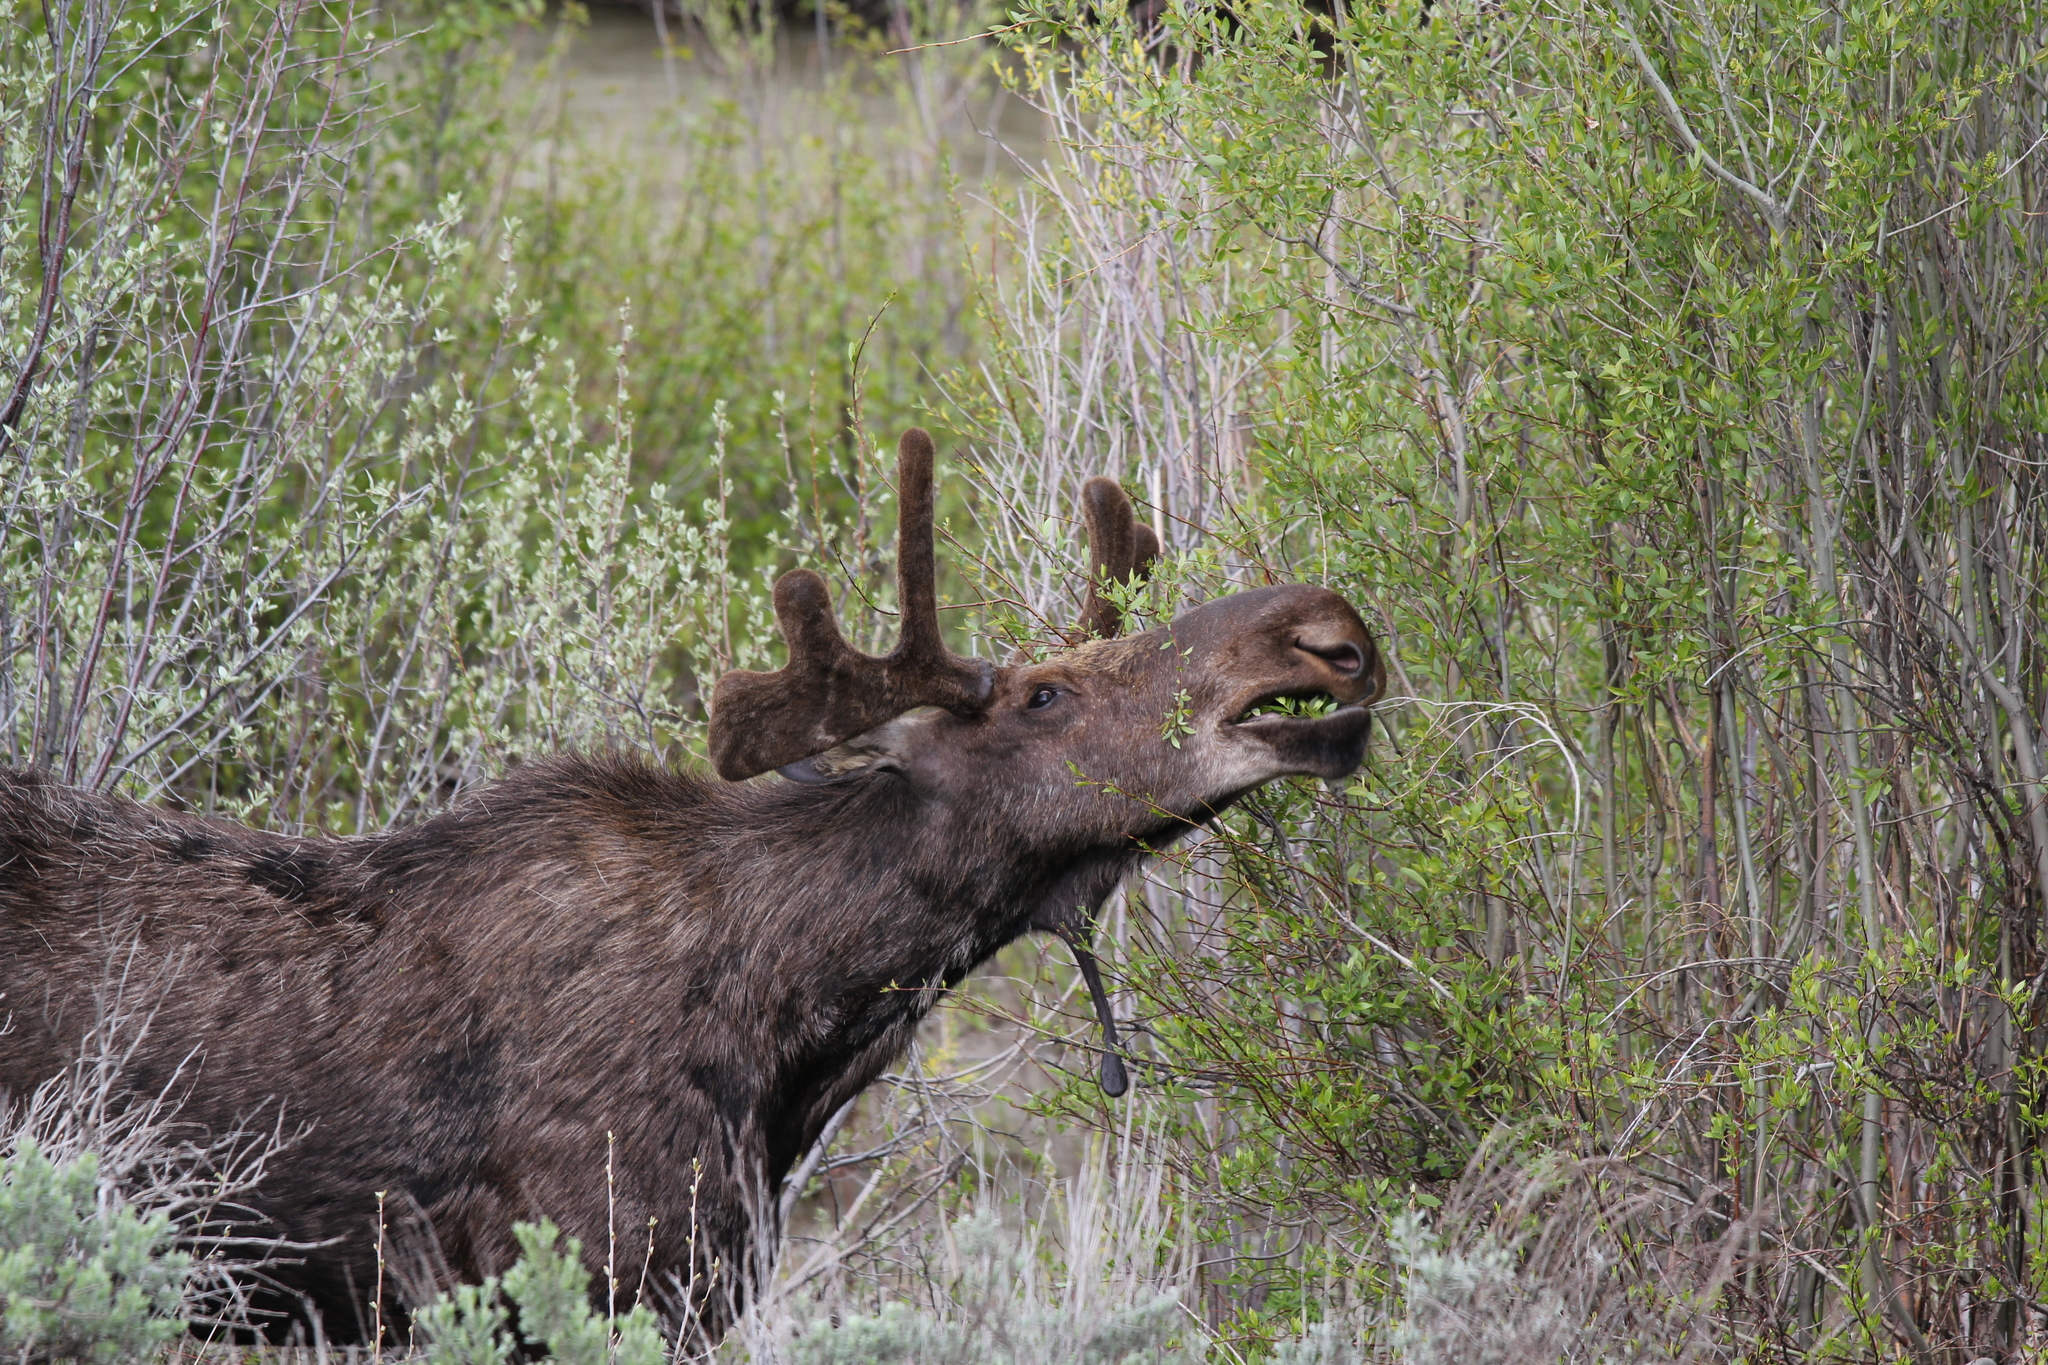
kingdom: Animalia
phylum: Chordata
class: Mammalia
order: Artiodactyla
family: Cervidae
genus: Alces
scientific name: Alces americanus
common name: Moose
